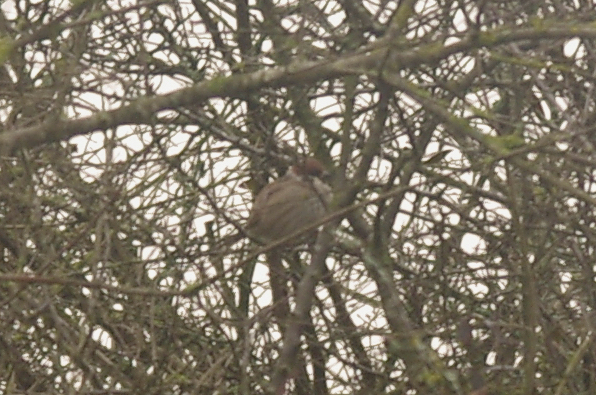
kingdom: Animalia
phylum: Chordata
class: Aves
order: Passeriformes
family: Passeridae
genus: Passer
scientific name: Passer montanus
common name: Eurasian tree sparrow
